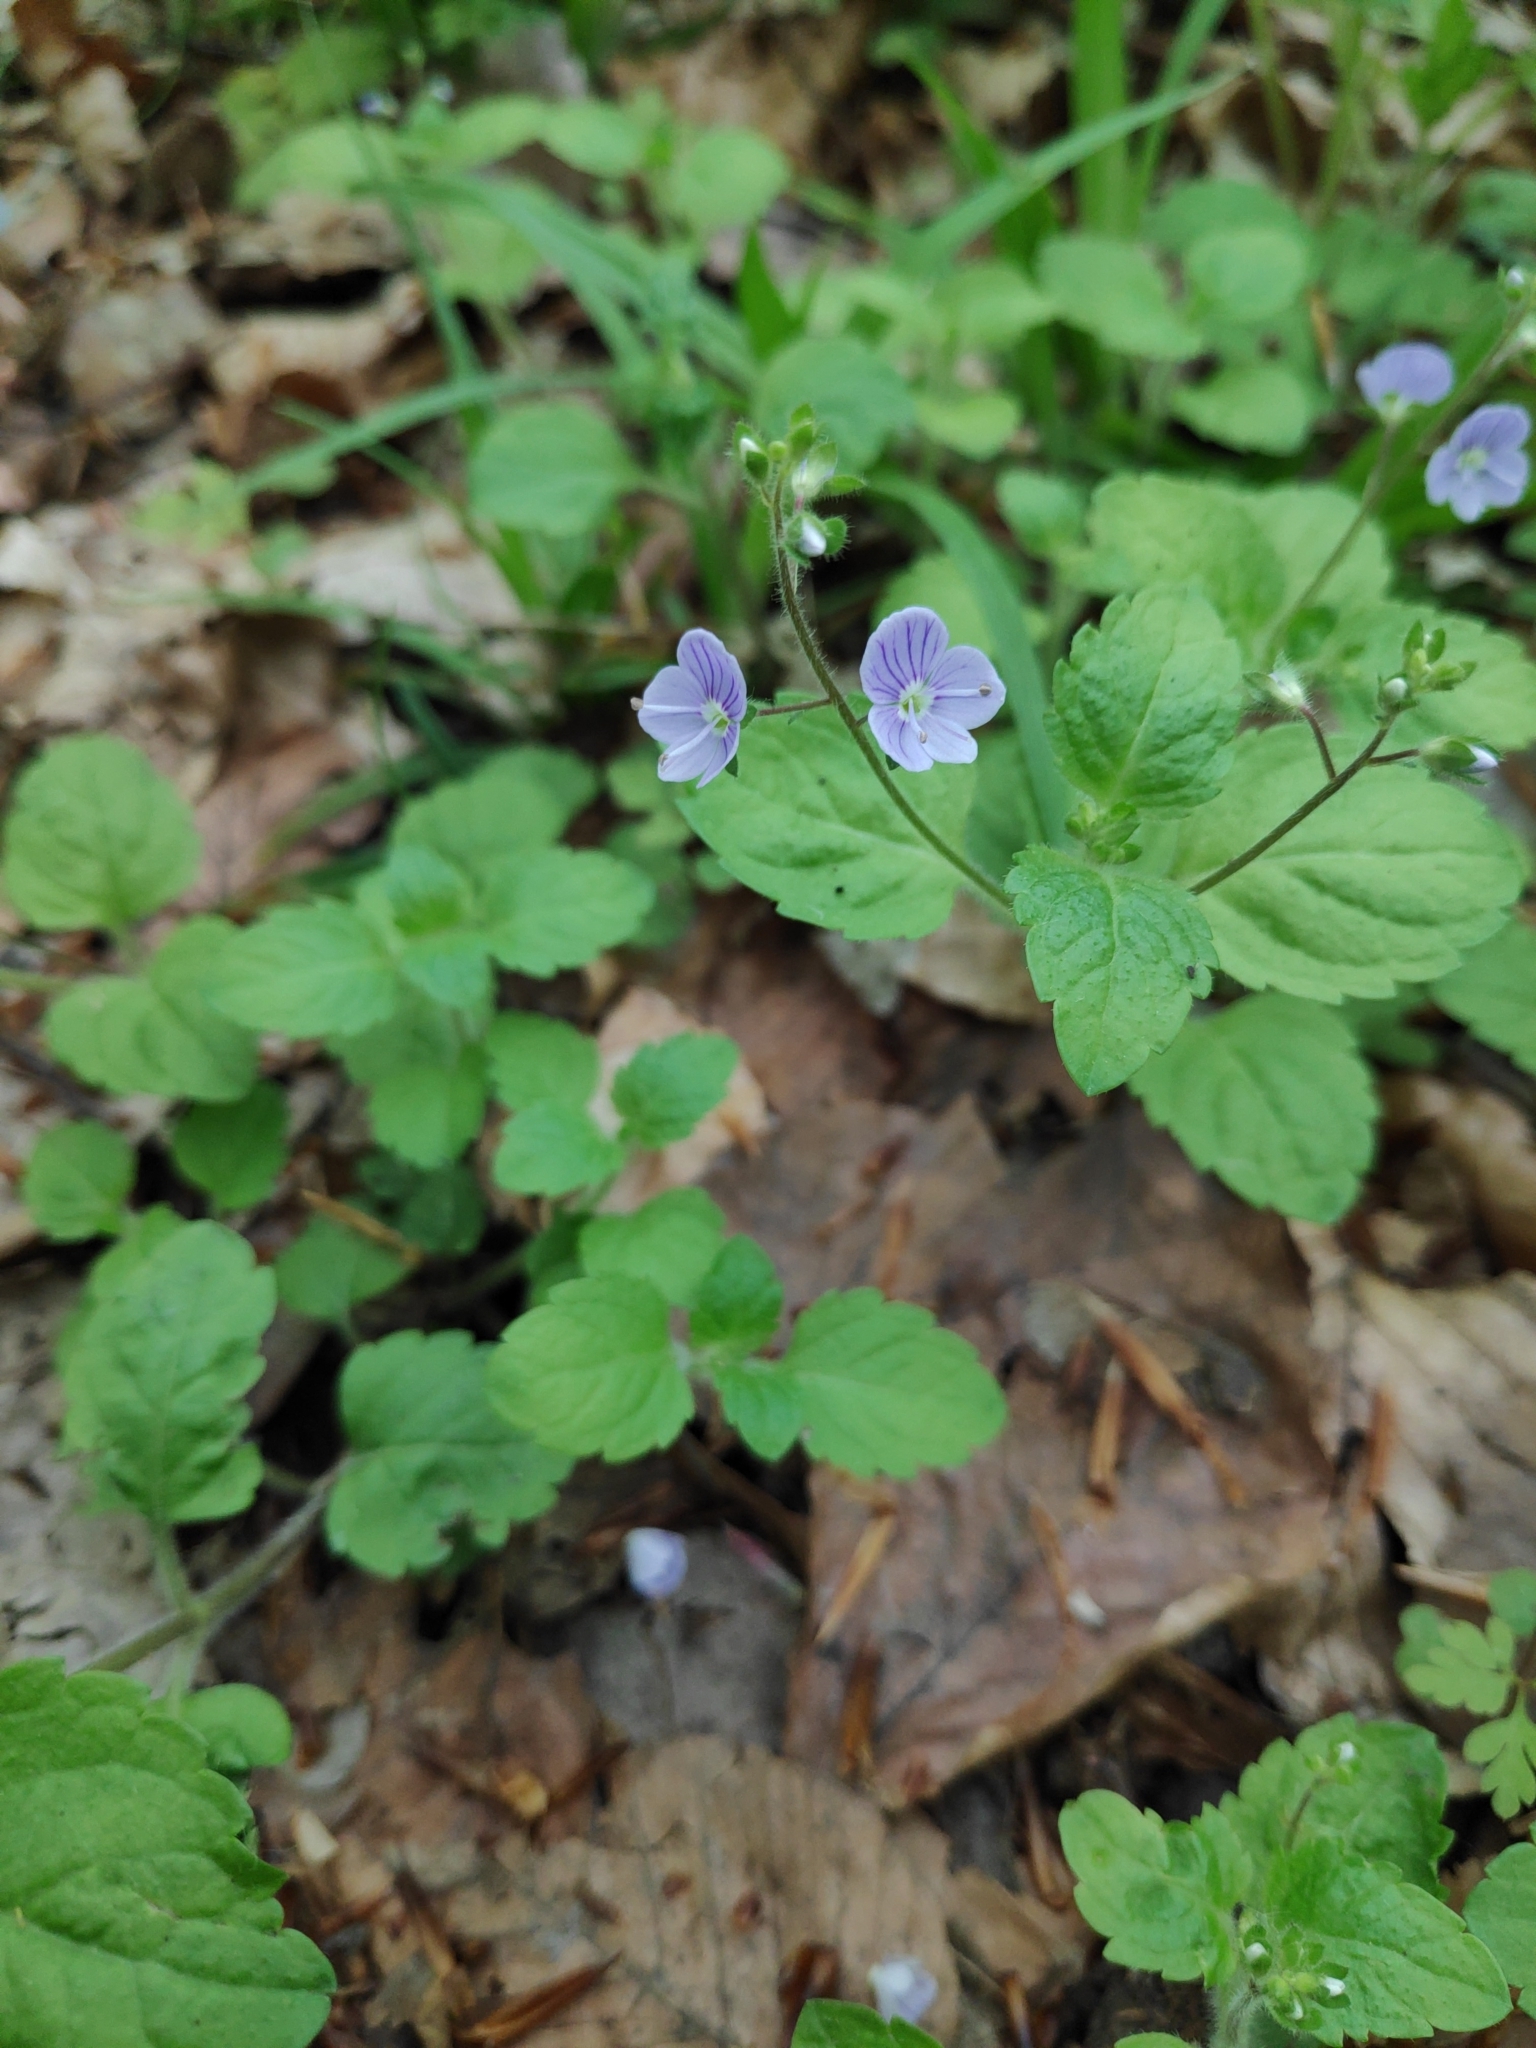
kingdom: Plantae
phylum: Tracheophyta
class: Magnoliopsida
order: Lamiales
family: Plantaginaceae
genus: Veronica
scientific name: Veronica montana
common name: Wood speedwell
